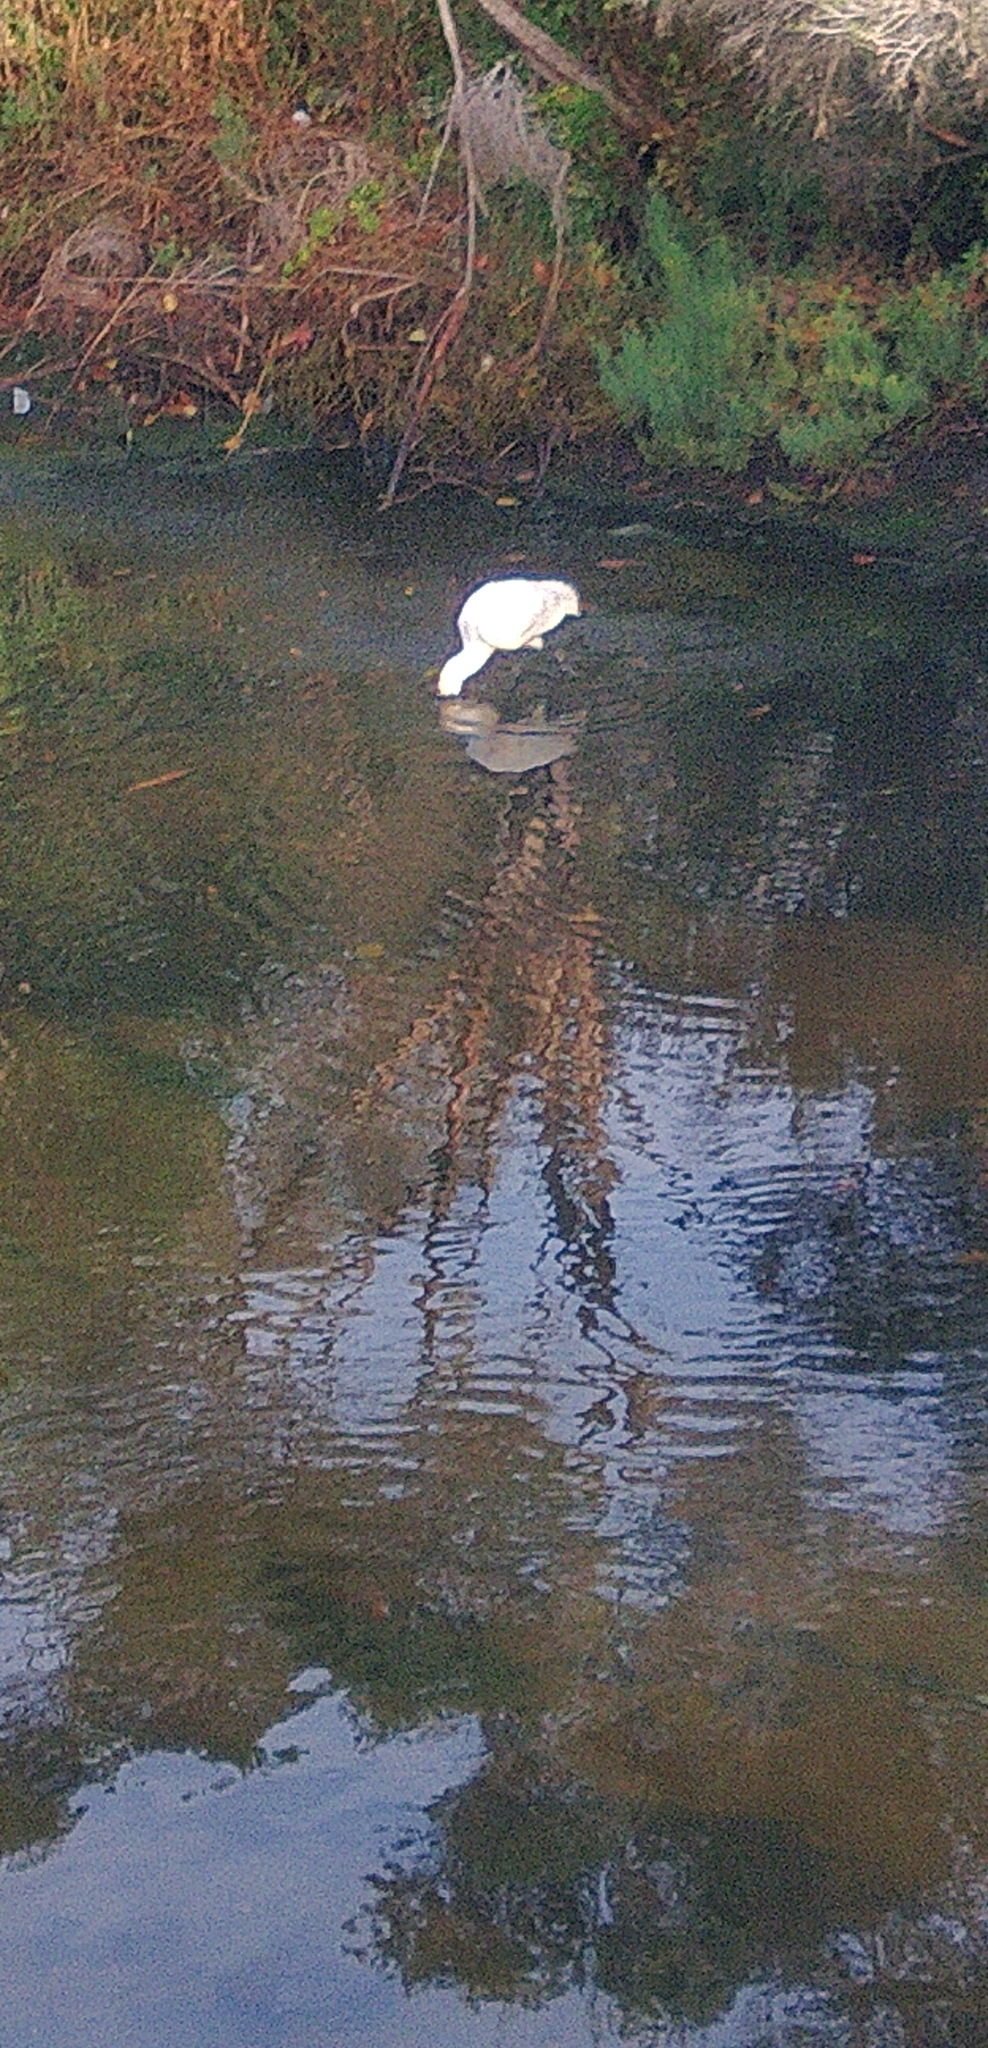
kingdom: Animalia
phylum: Chordata
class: Aves
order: Pelecaniformes
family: Threskiornithidae
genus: Platalea
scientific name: Platalea regia
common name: Royal spoonbill
